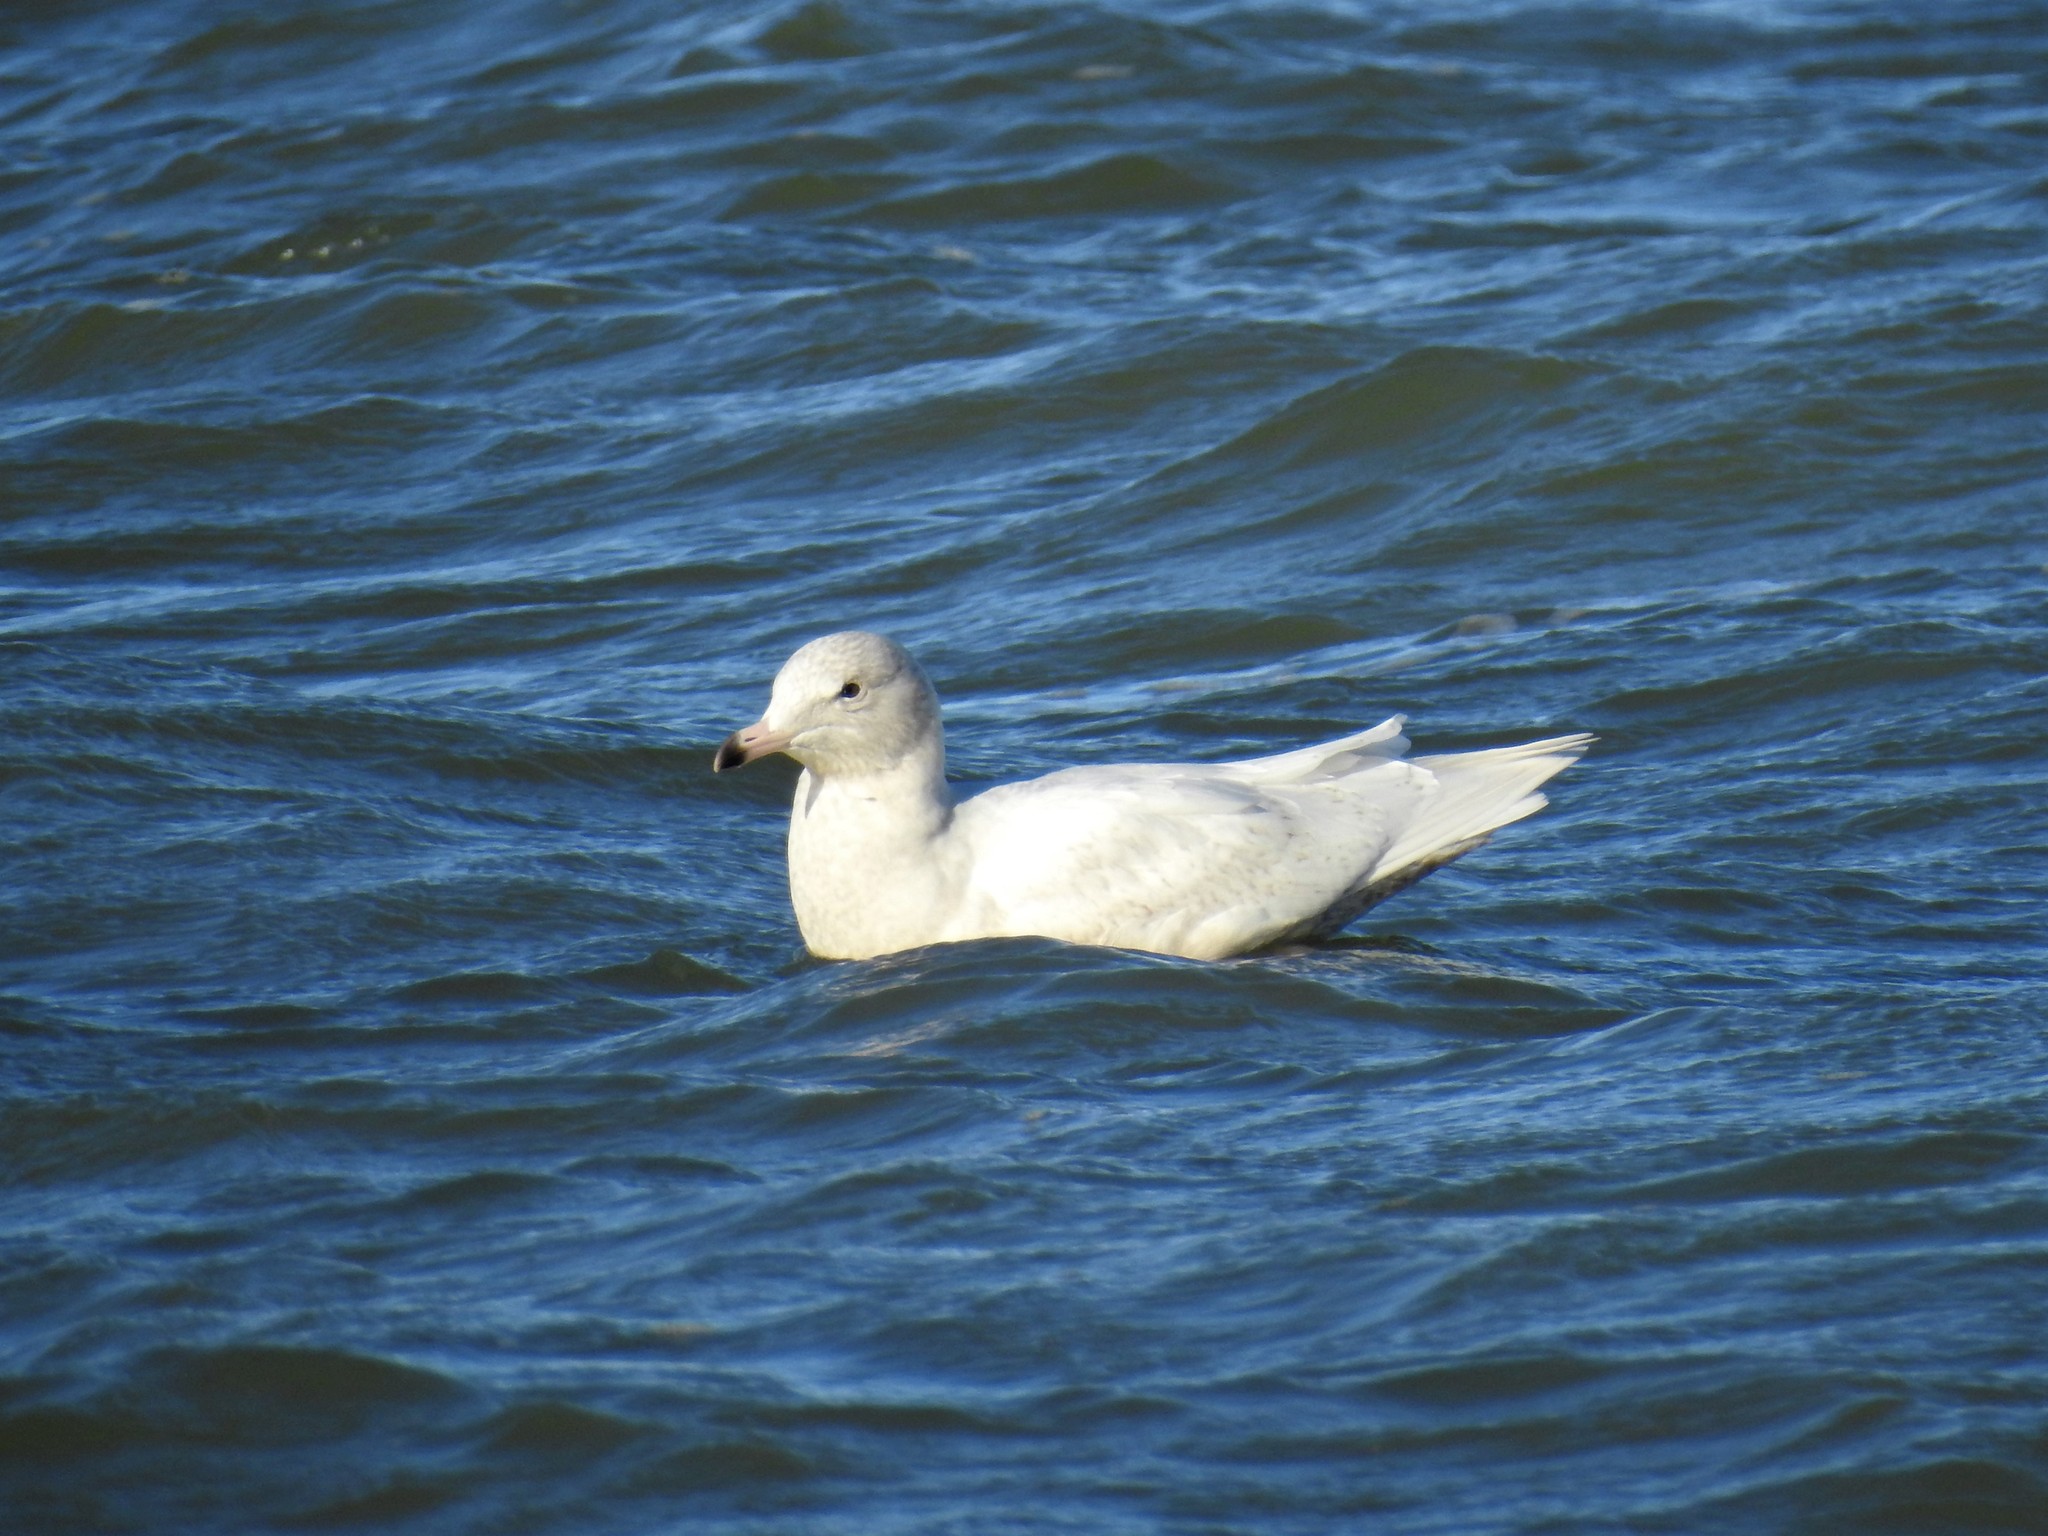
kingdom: Animalia
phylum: Chordata
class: Aves
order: Charadriiformes
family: Laridae
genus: Larus
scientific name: Larus hyperboreus
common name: Glaucous gull
